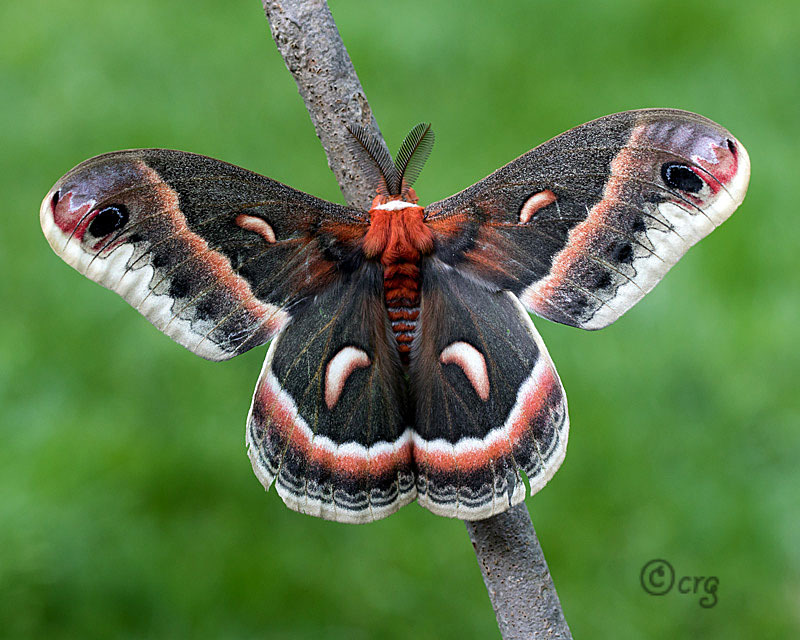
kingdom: Animalia
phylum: Arthropoda
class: Insecta
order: Lepidoptera
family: Saturniidae
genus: Hyalophora
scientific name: Hyalophora cecropia
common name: Cecropia silkmoth
